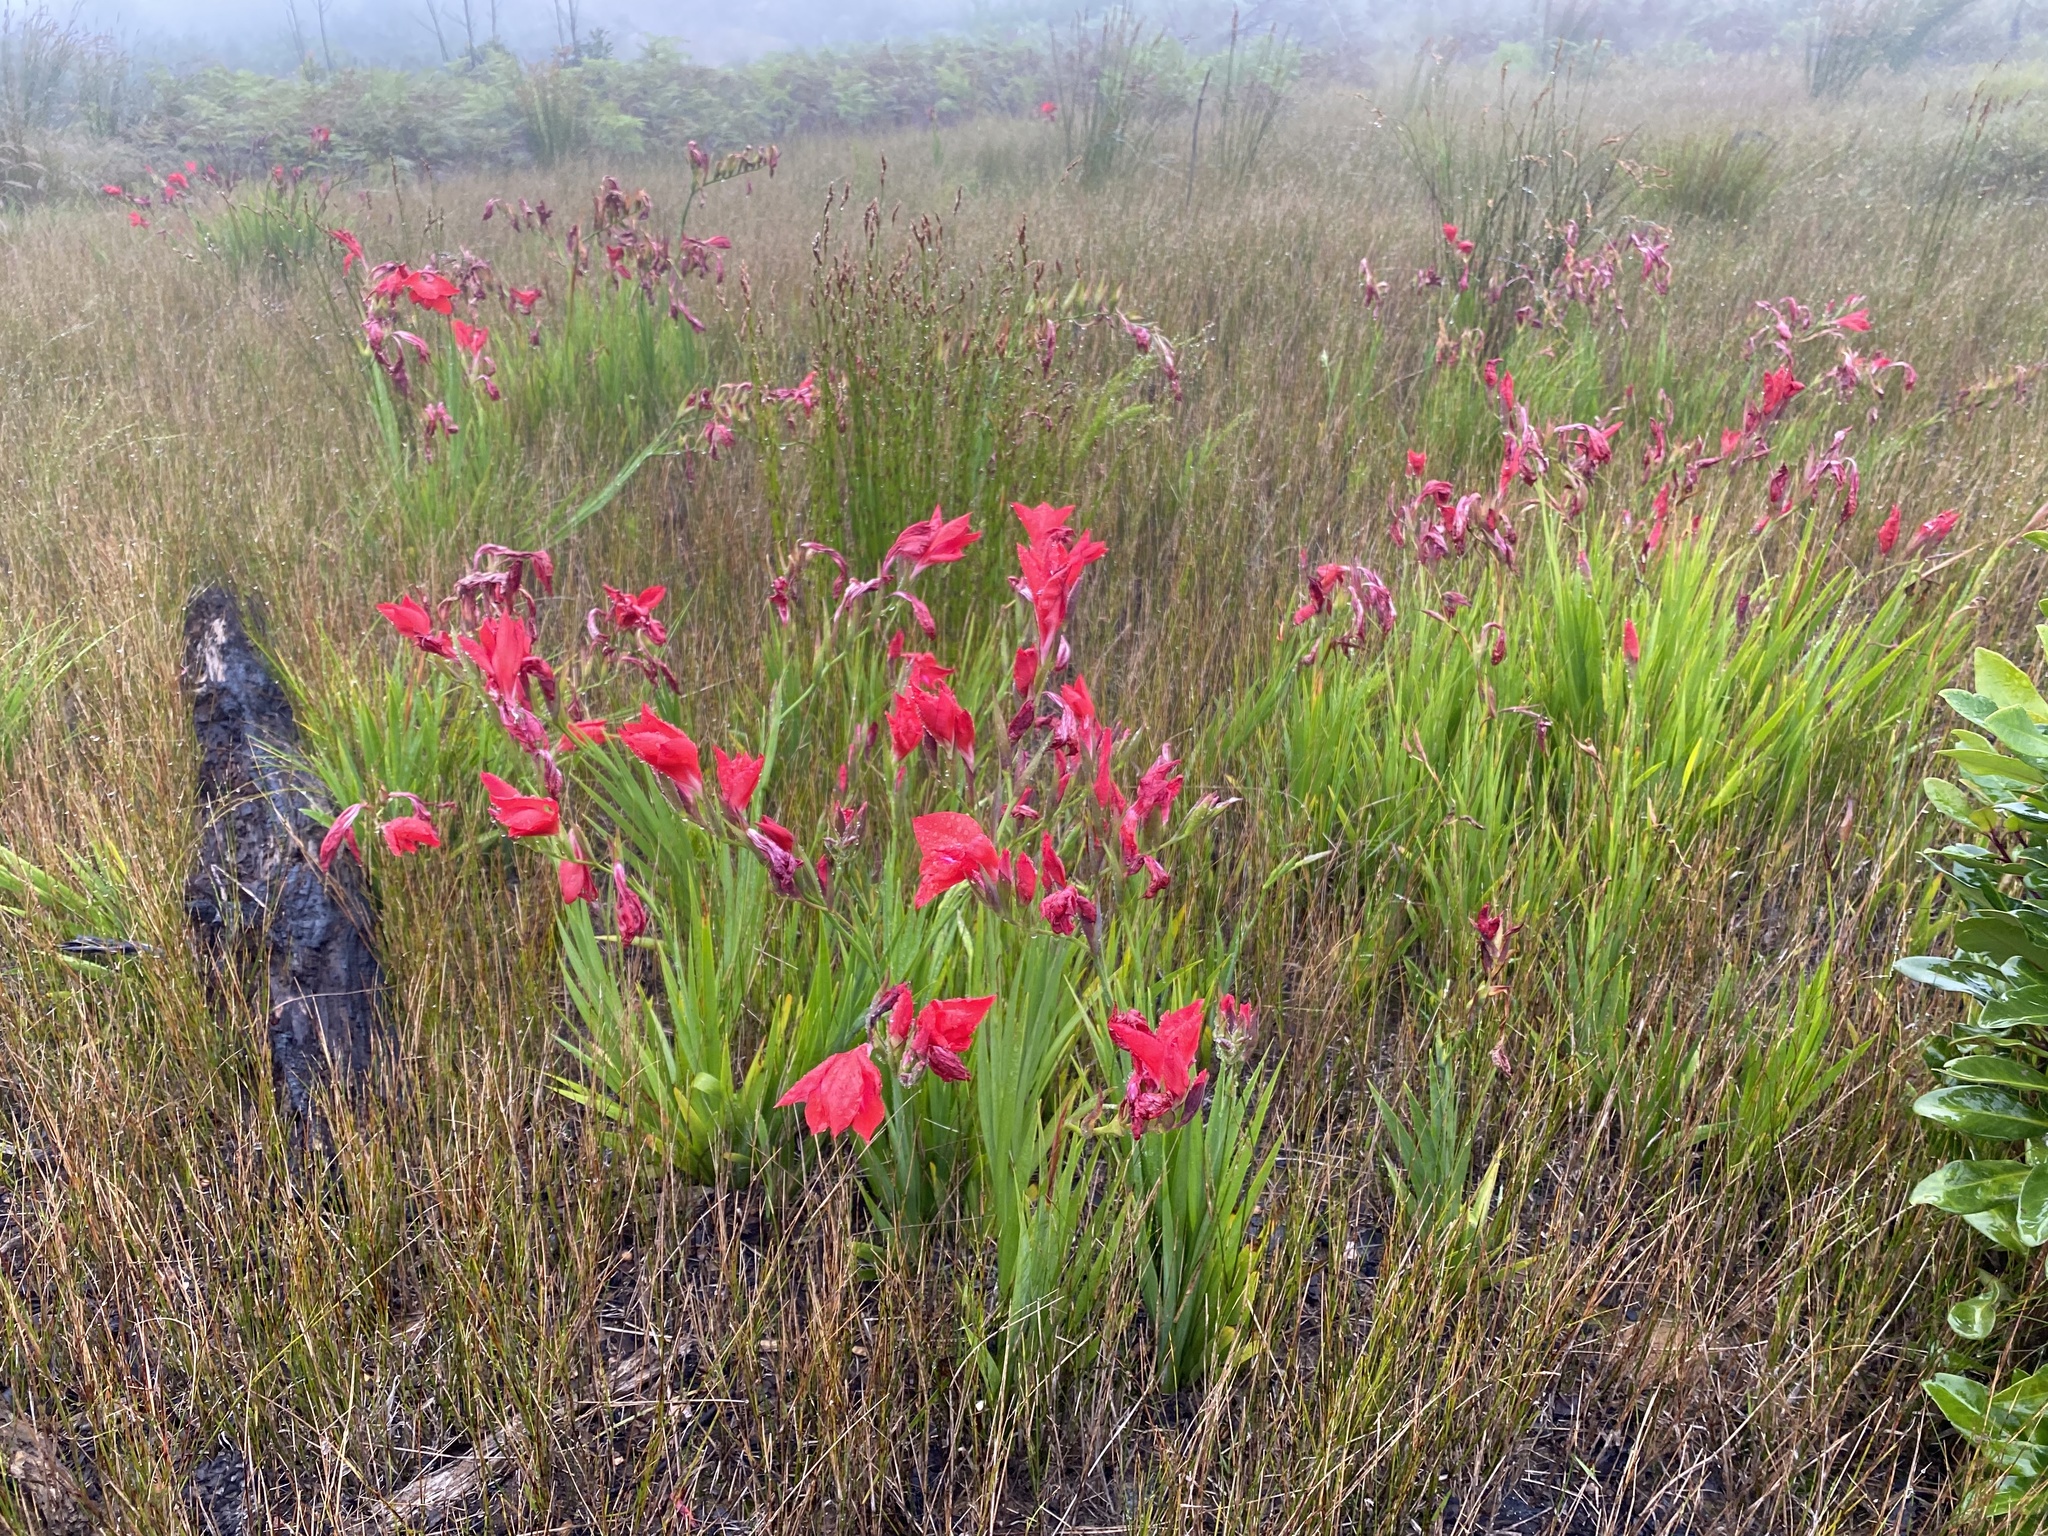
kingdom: Plantae
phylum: Tracheophyta
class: Liliopsida
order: Asparagales
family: Iridaceae
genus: Gladiolus
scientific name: Gladiolus sempervirens
